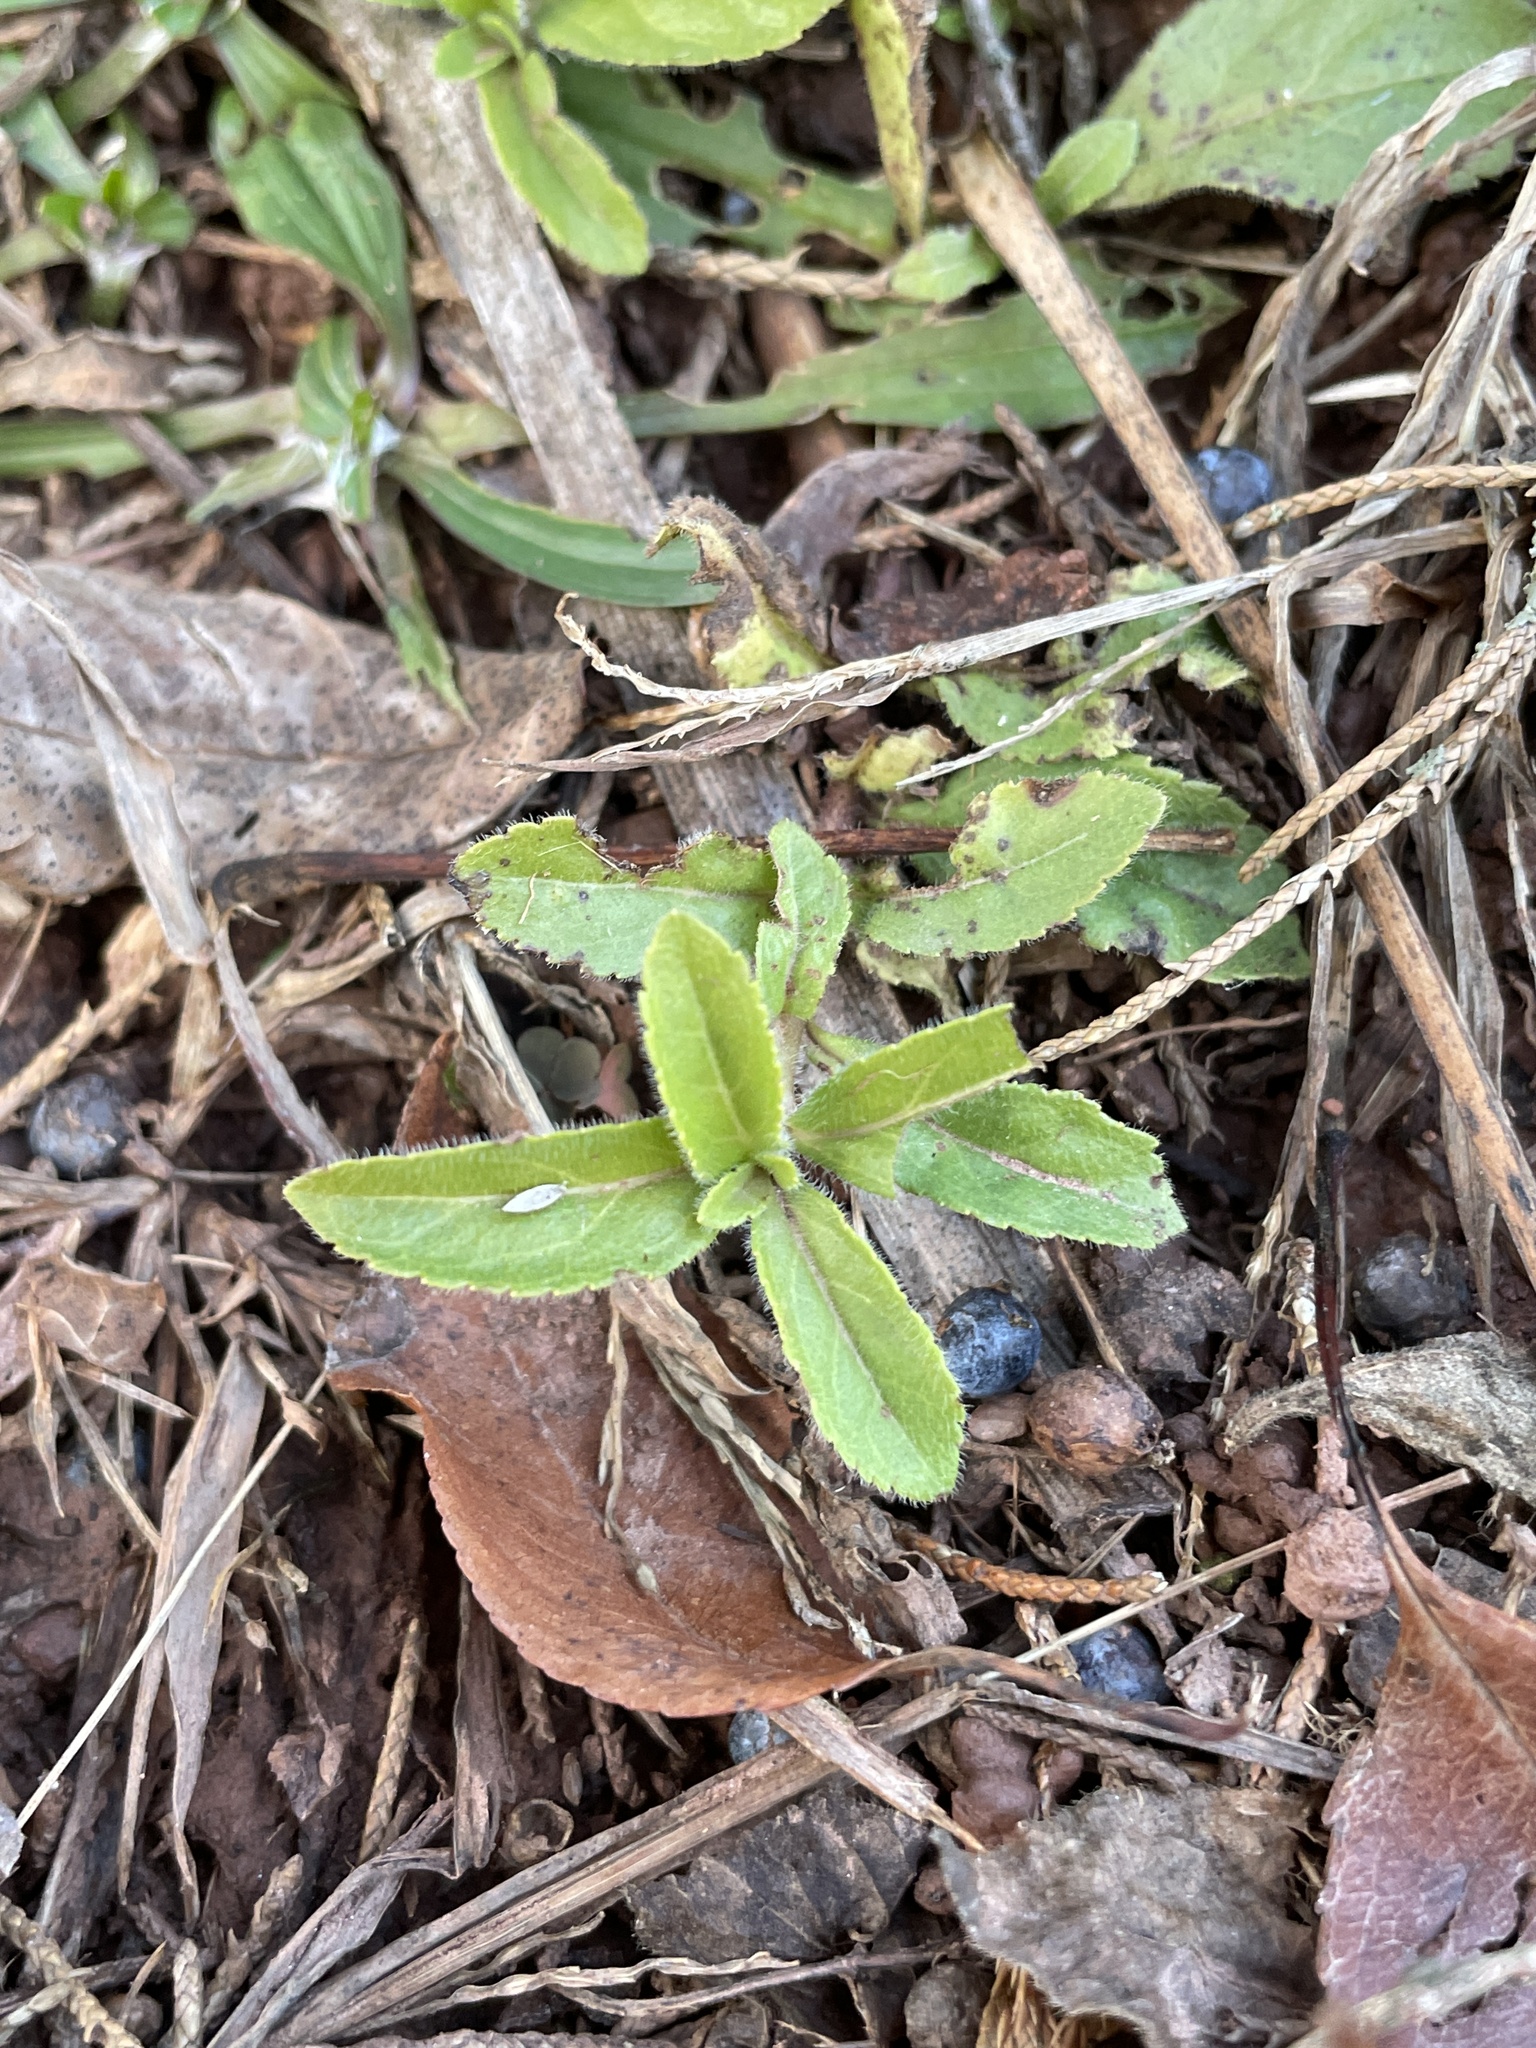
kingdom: Plantae
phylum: Tracheophyta
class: Magnoliopsida
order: Lamiales
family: Plantaginaceae
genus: Veronica
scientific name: Veronica officinalis
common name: Common speedwell
